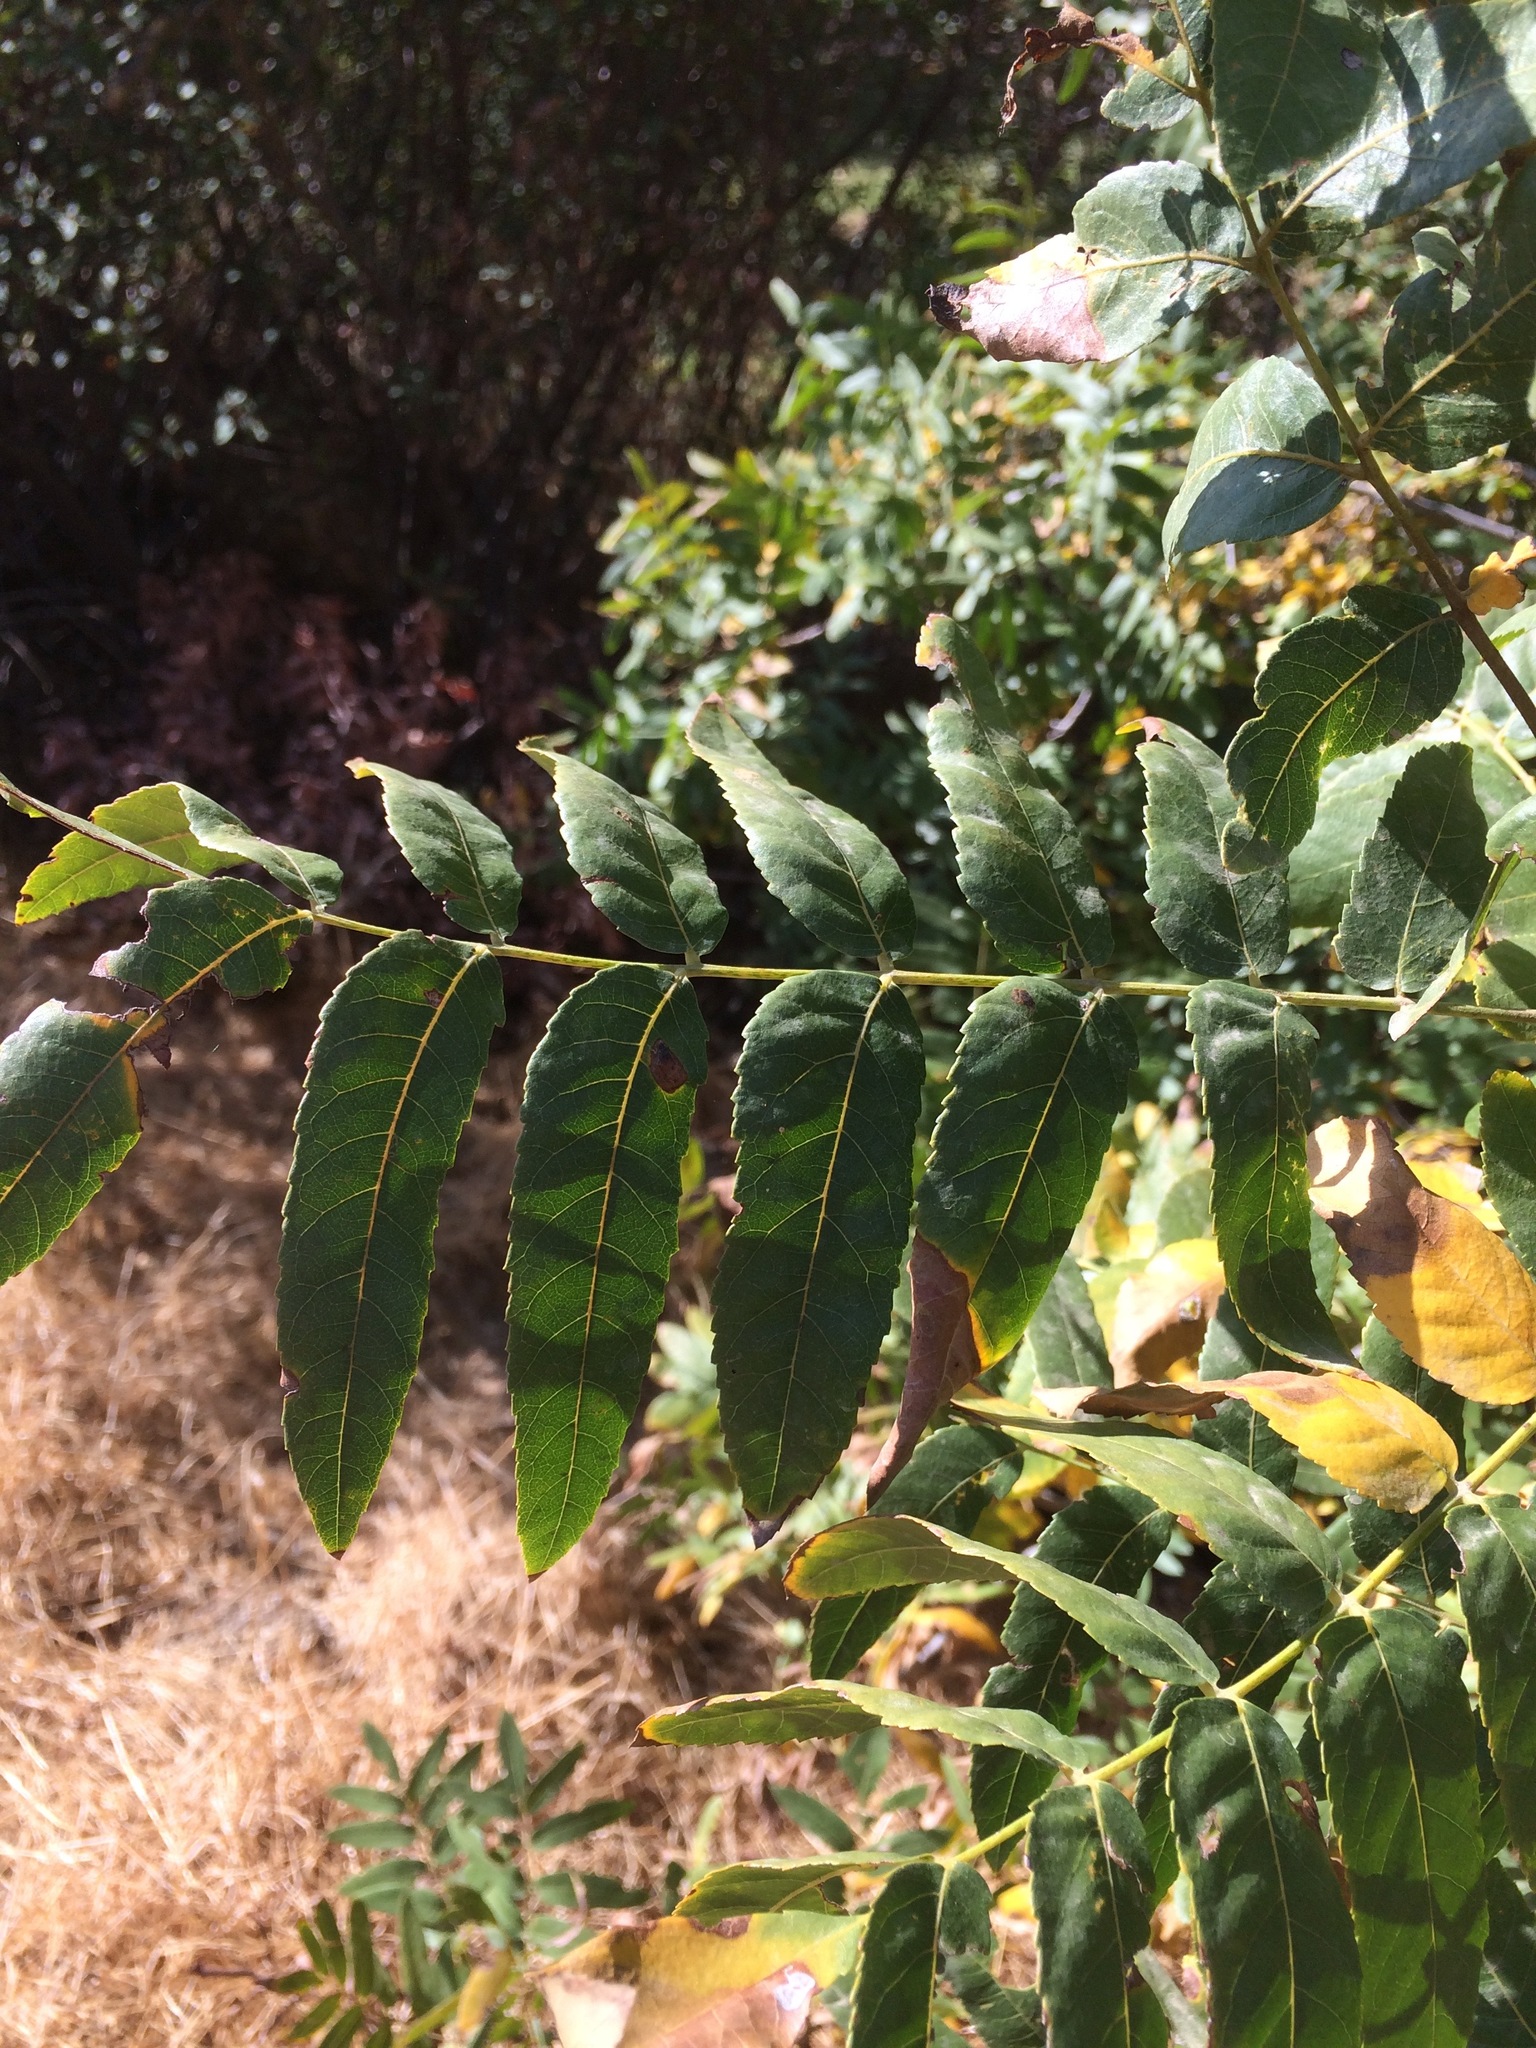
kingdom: Plantae
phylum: Tracheophyta
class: Magnoliopsida
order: Fagales
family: Juglandaceae
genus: Juglans
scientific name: Juglans californica
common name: Southern california black walnut
